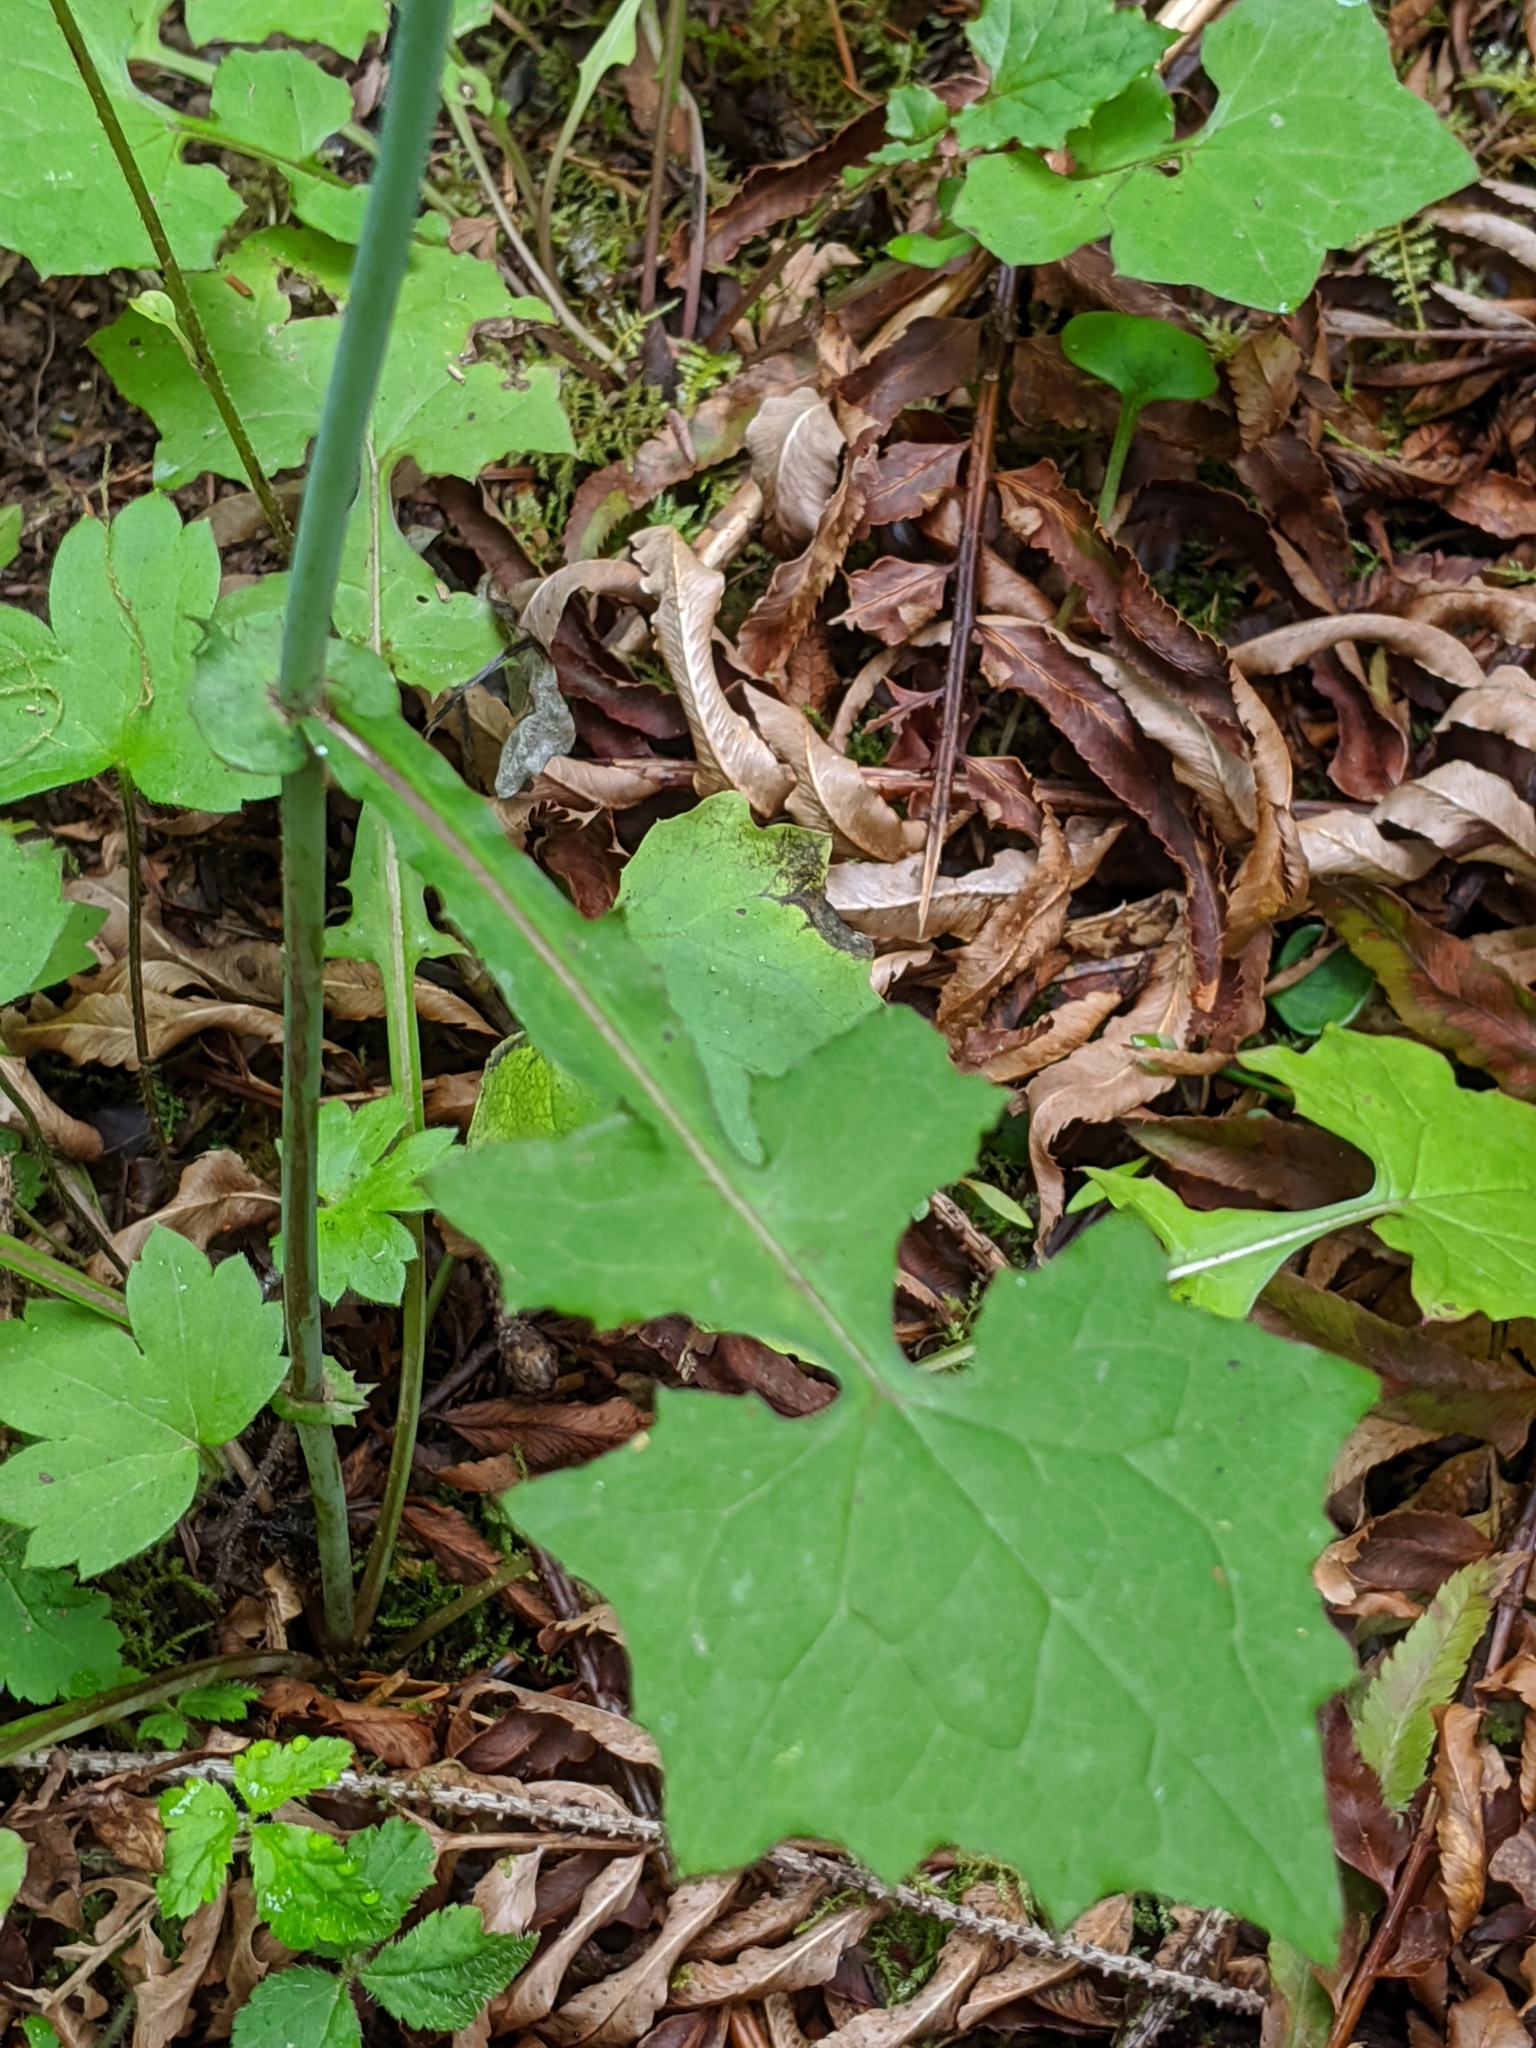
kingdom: Plantae
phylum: Tracheophyta
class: Magnoliopsida
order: Asterales
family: Asteraceae
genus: Mycelis
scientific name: Mycelis muralis
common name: Wall lettuce
